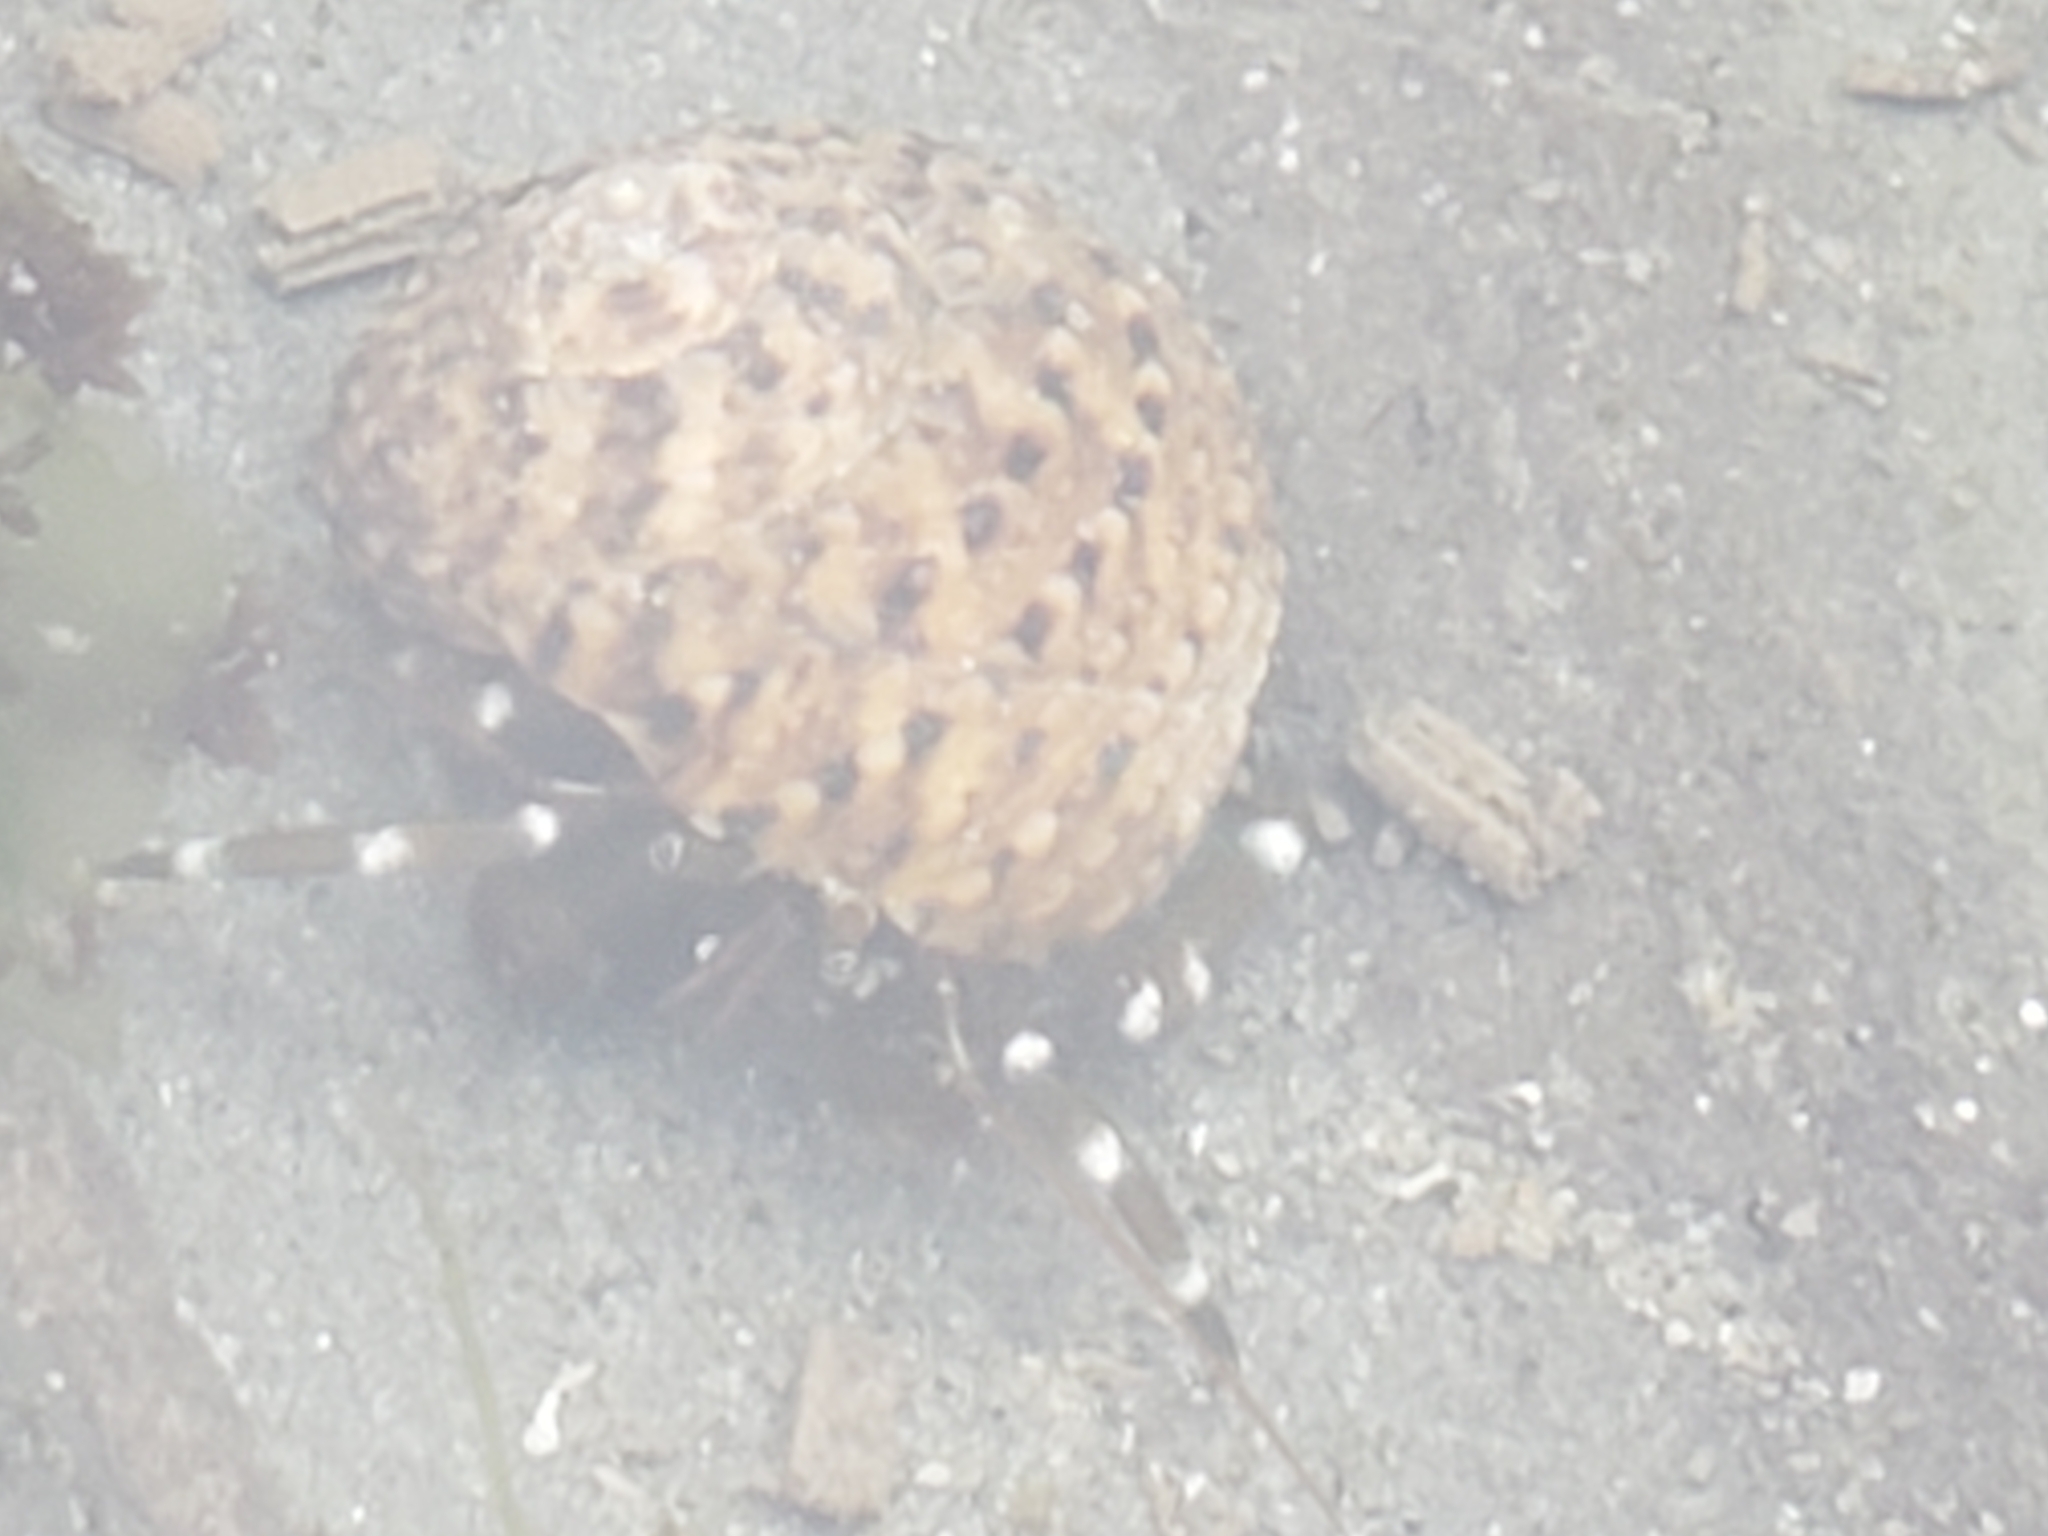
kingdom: Animalia
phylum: Arthropoda
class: Malacostraca
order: Decapoda
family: Paguridae
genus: Pagurus
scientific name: Pagurus samuelis
